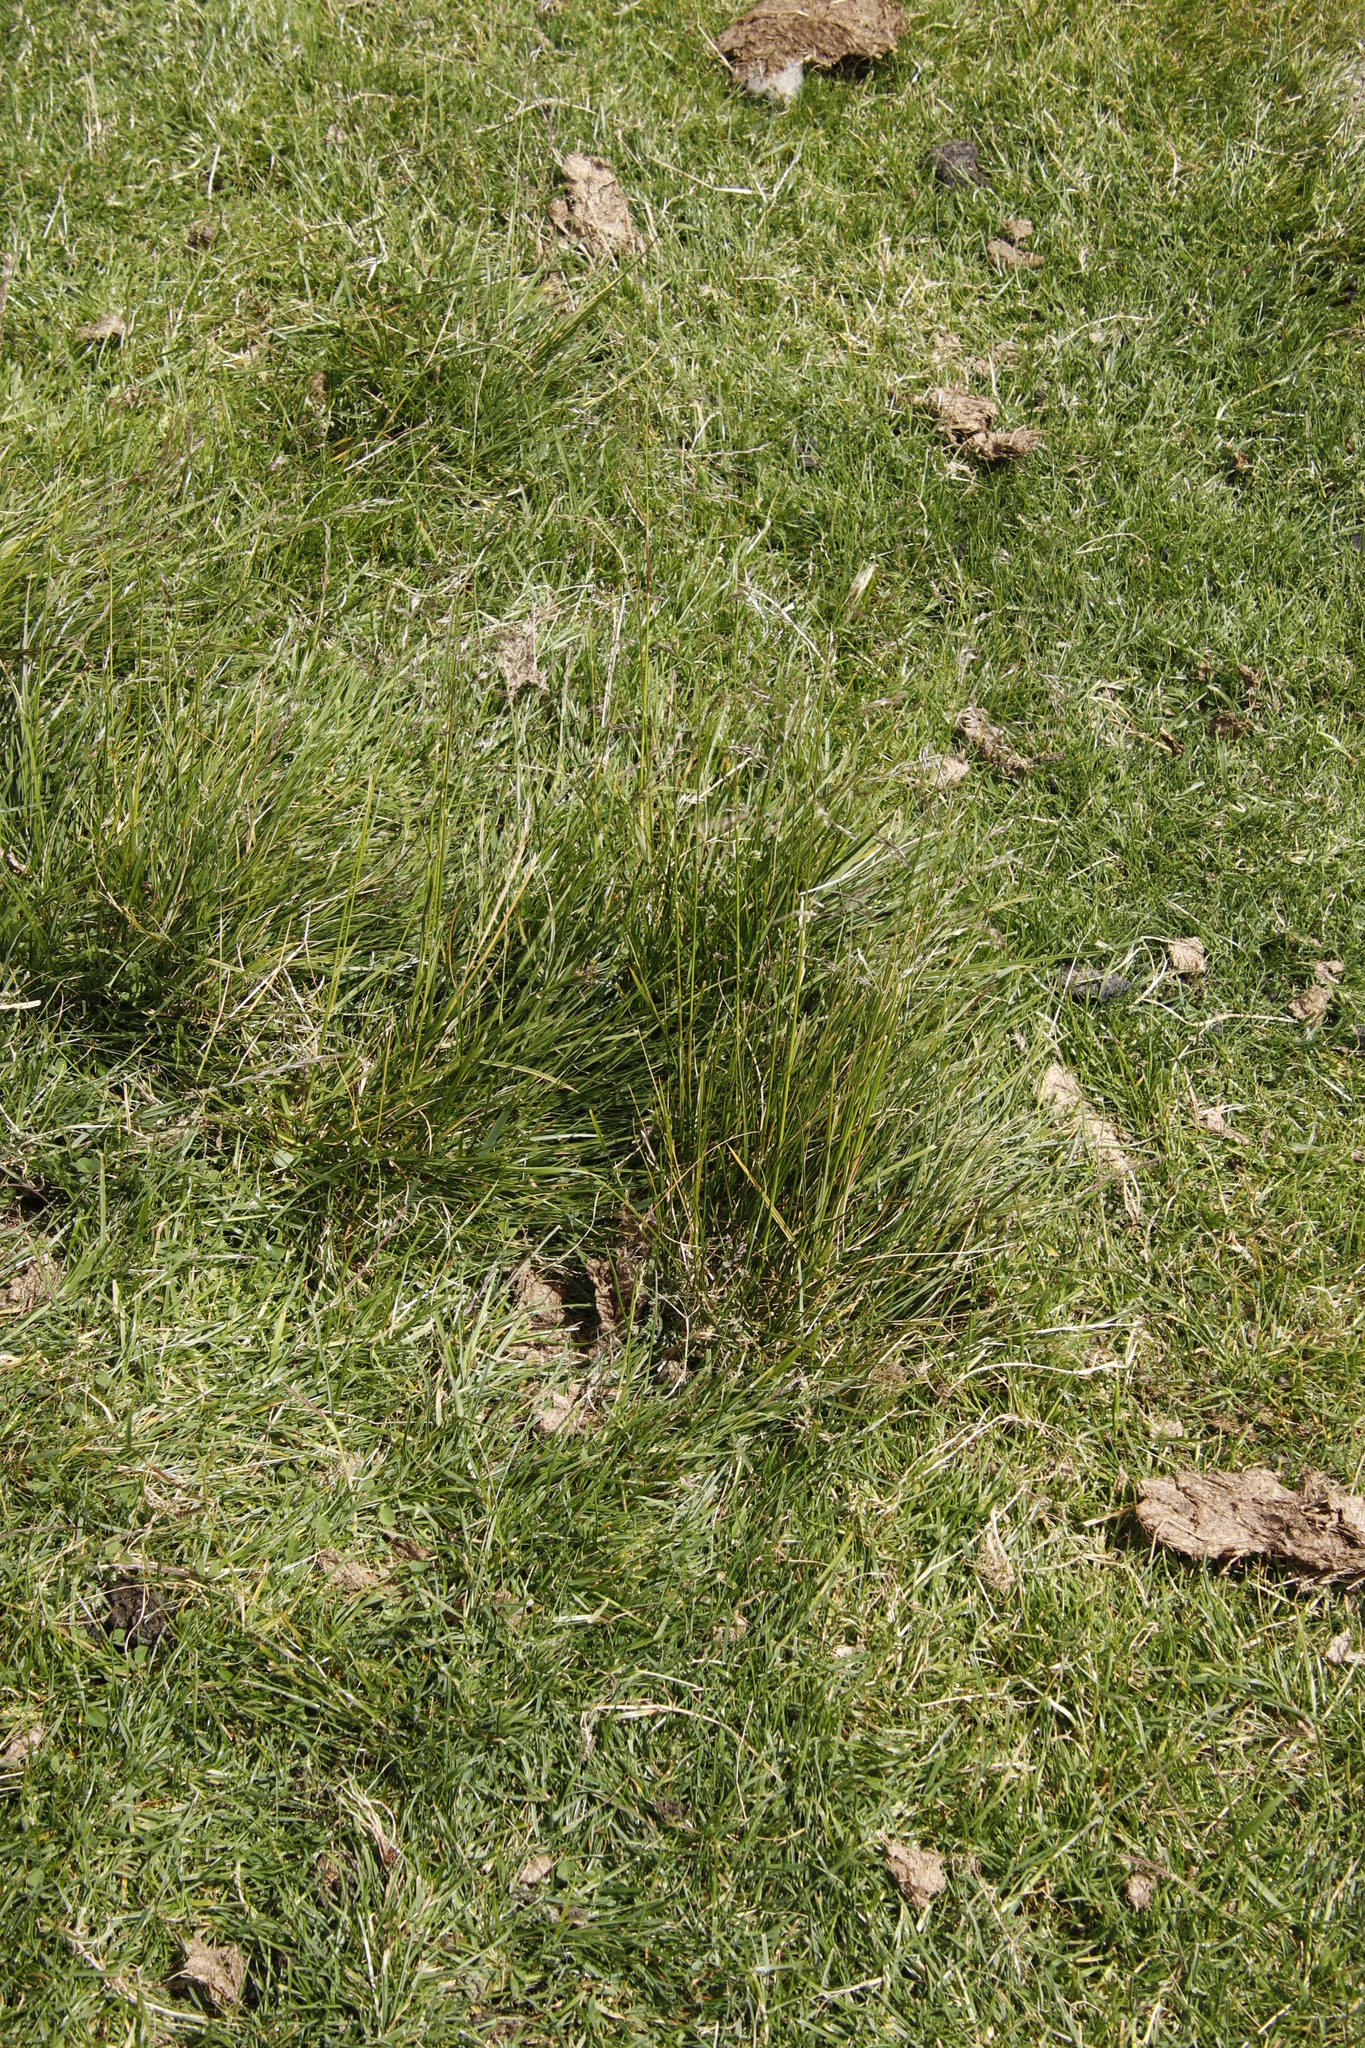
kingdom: Plantae
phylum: Tracheophyta
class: Liliopsida
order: Poales
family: Poaceae
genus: Deschampsia
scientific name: Deschampsia cespitosa
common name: Tufted hair-grass
